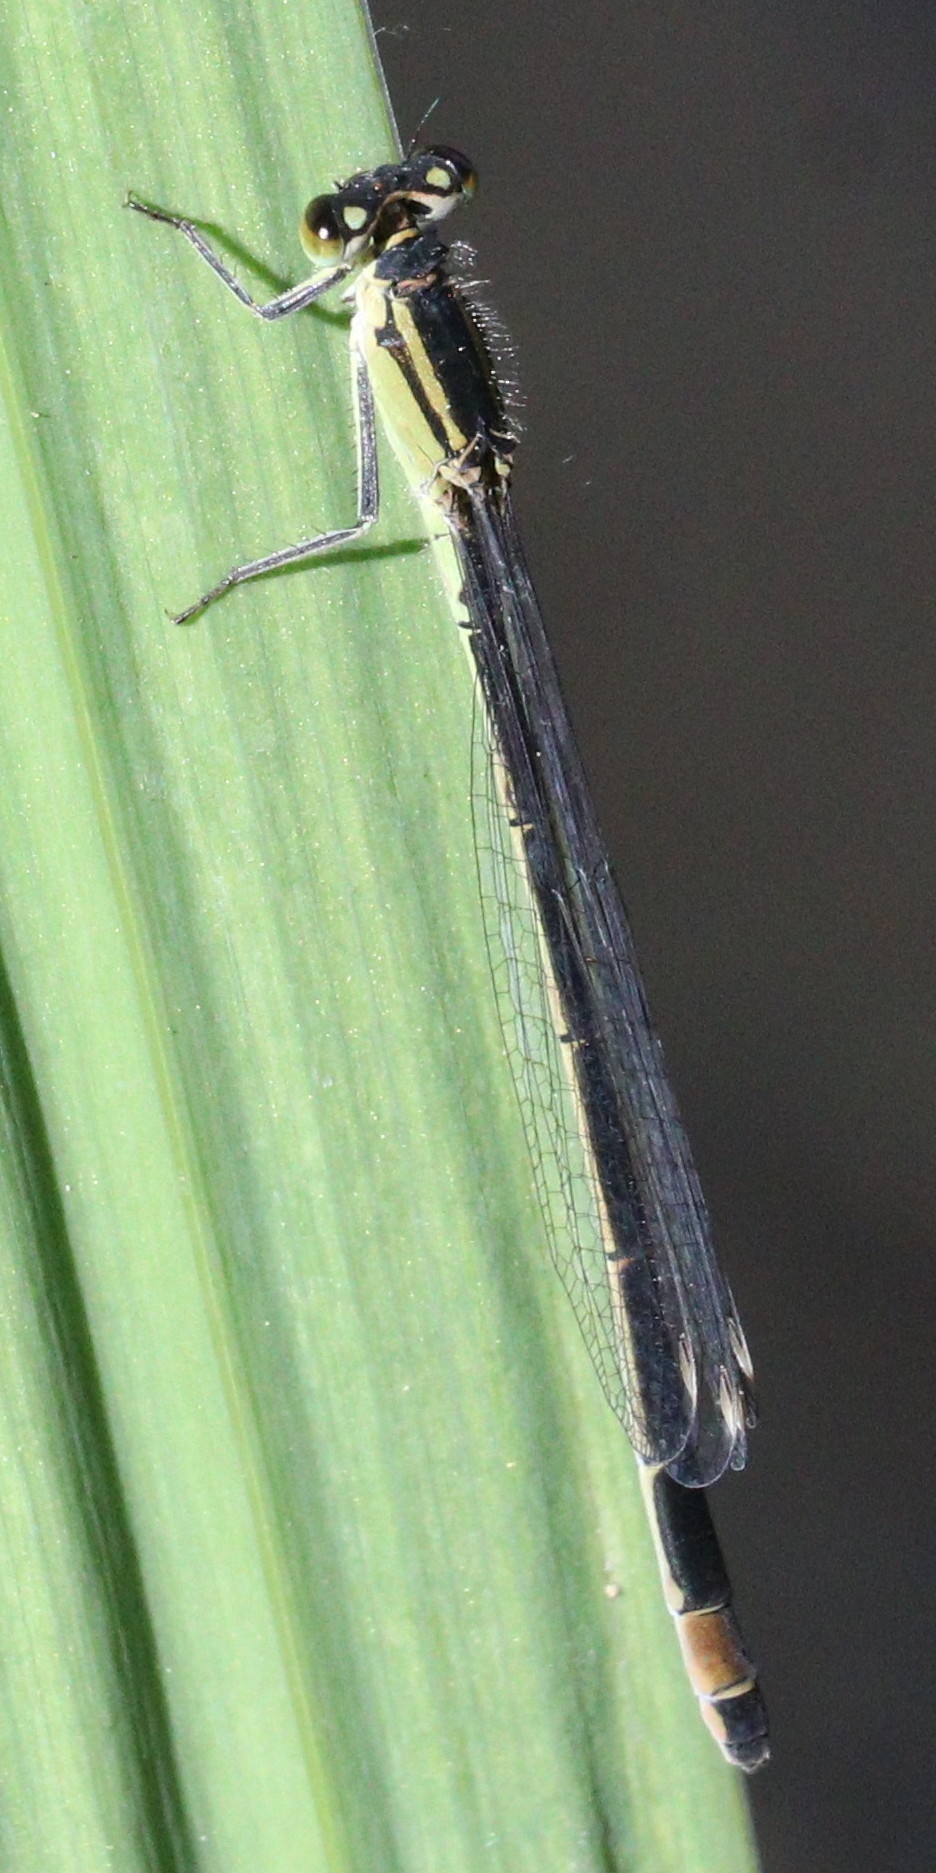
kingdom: Animalia
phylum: Arthropoda
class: Insecta
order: Odonata
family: Coenagrionidae
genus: Ischnura
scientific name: Ischnura elegans
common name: Blue-tailed damselfly
